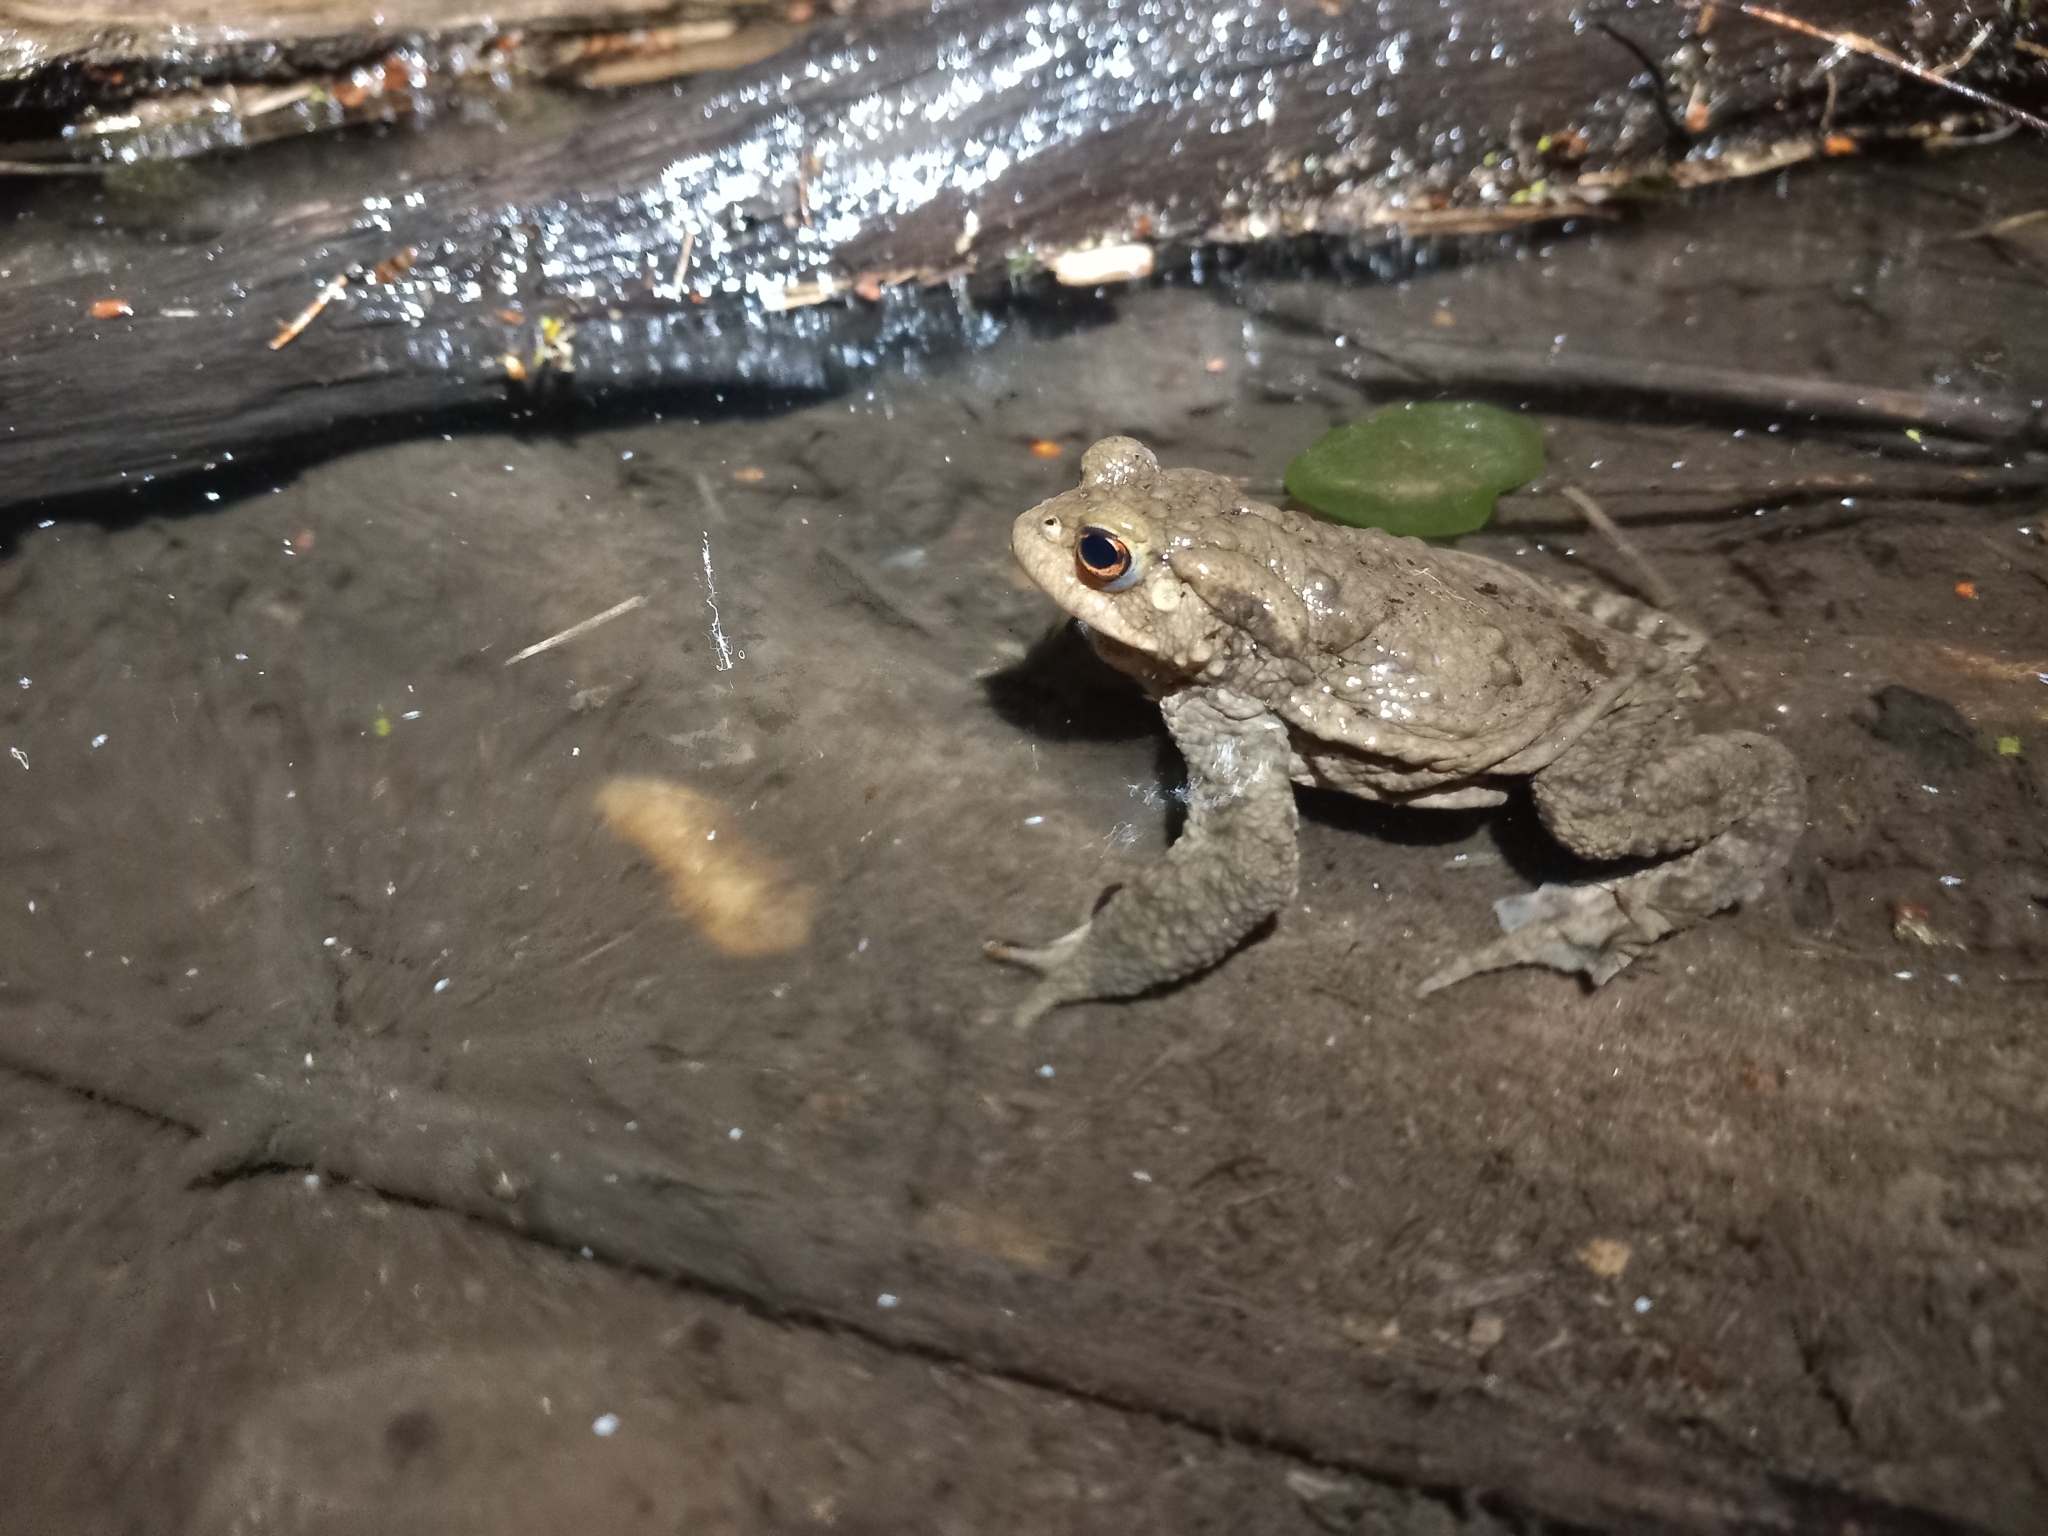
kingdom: Animalia
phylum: Chordata
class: Amphibia
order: Anura
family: Bufonidae
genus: Bufo
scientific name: Bufo bufo
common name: Common toad
